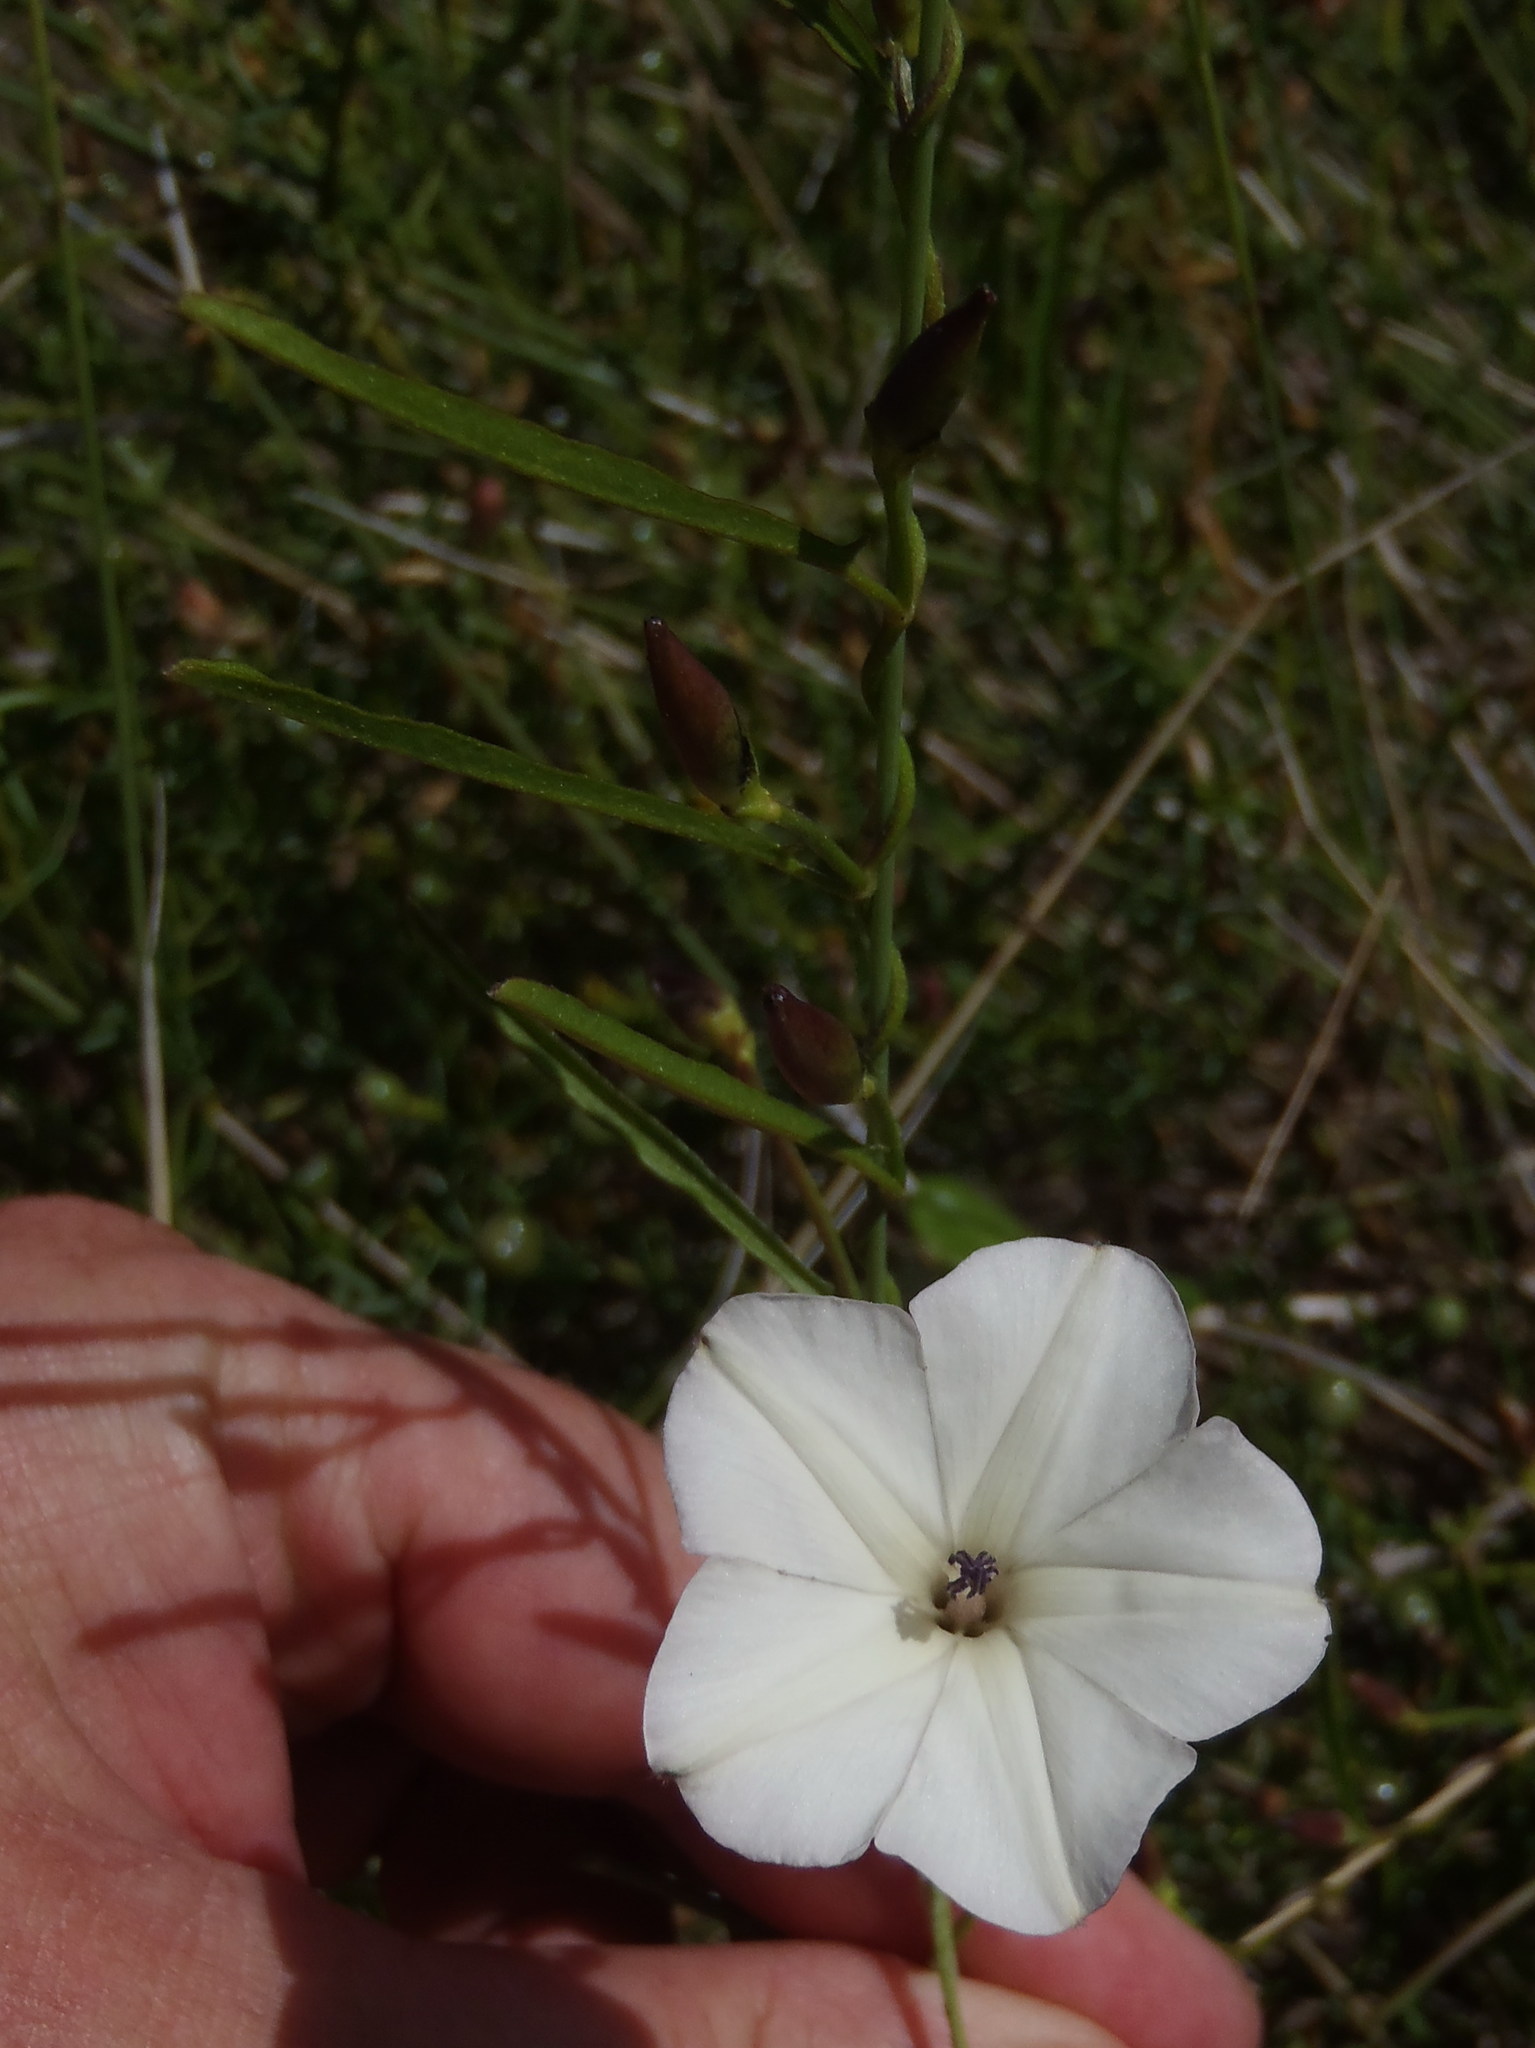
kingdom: Plantae
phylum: Tracheophyta
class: Magnoliopsida
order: Solanales
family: Convolvulaceae
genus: Convolvulus
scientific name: Convolvulus capensis
